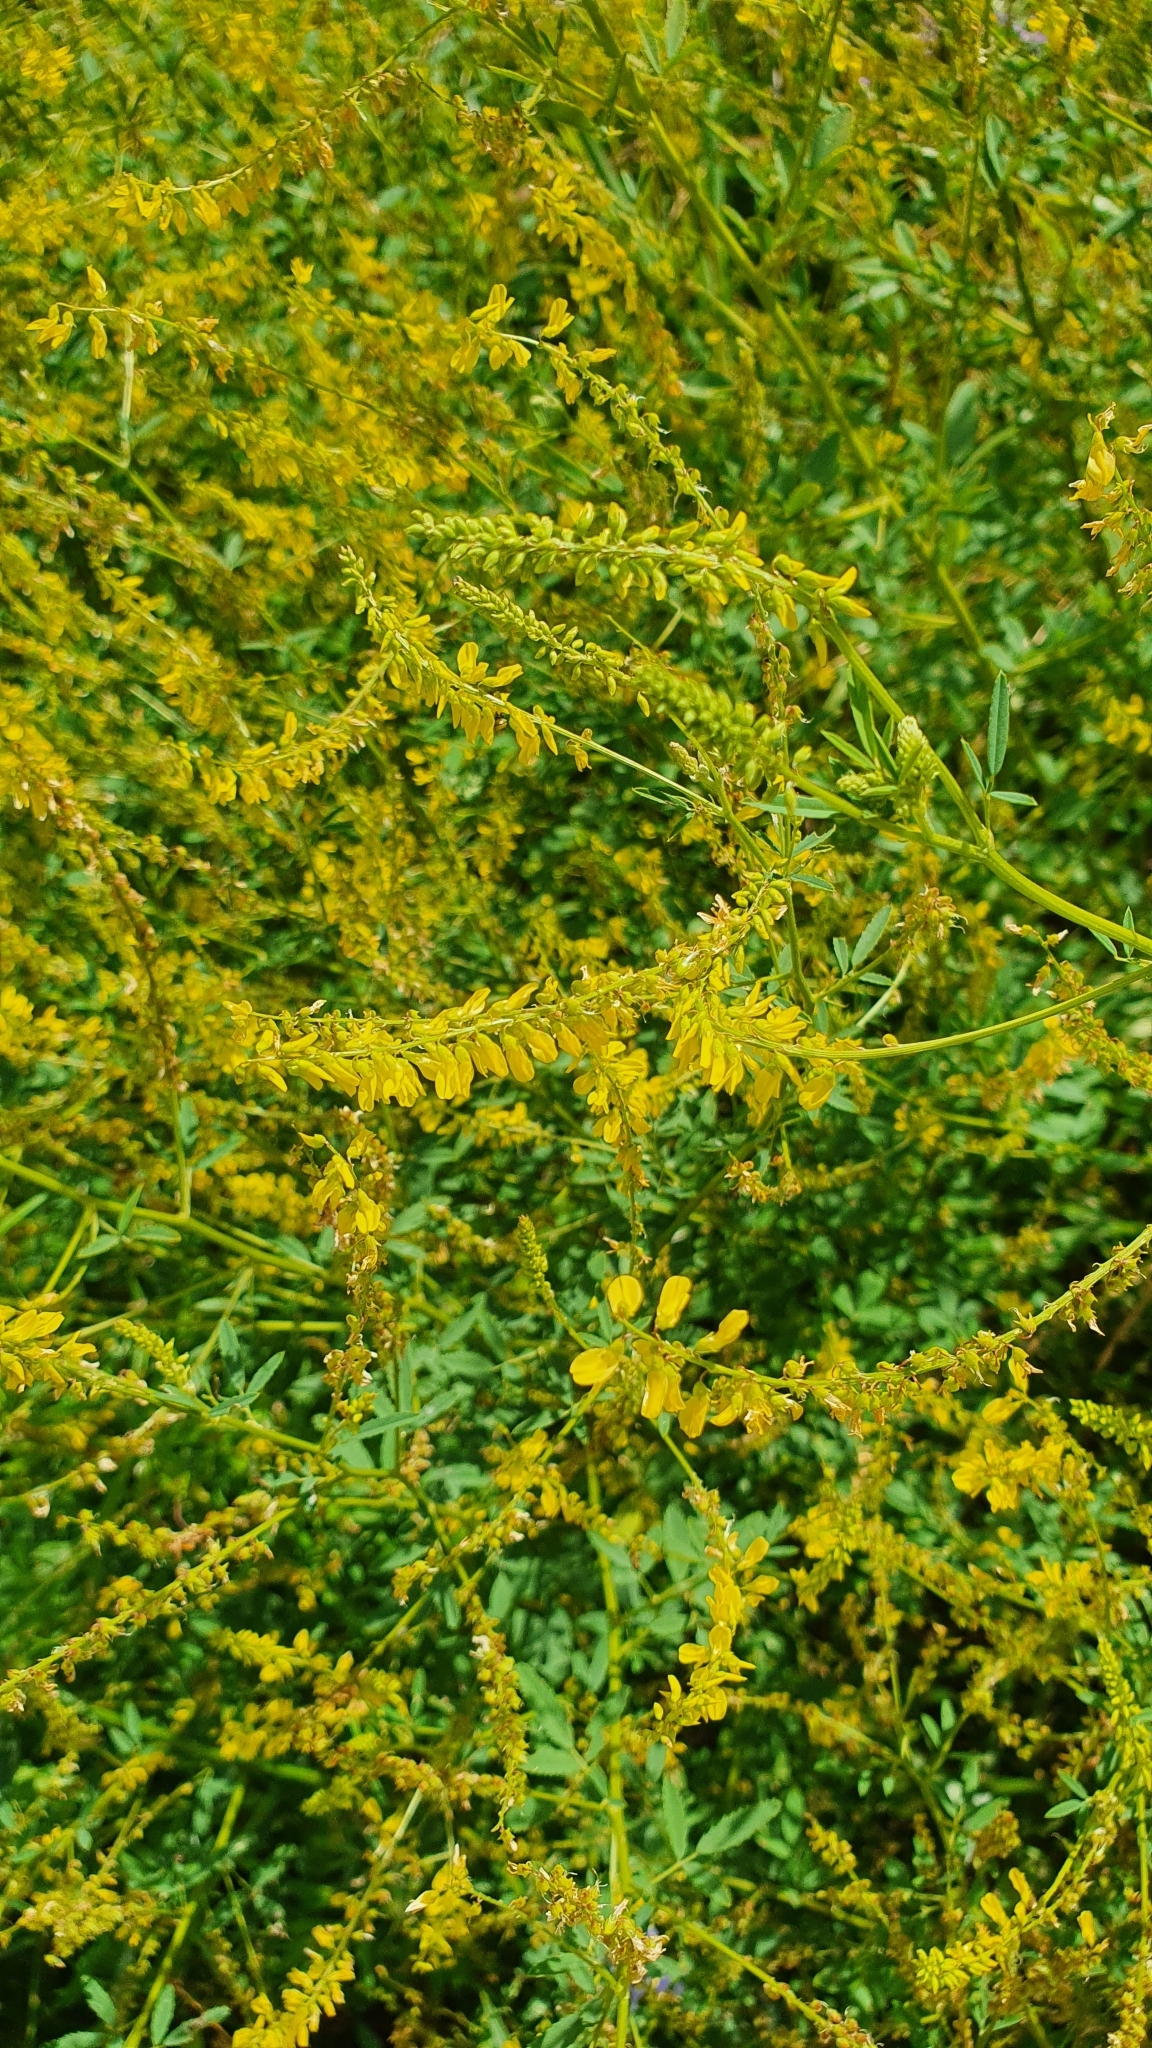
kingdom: Plantae
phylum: Tracheophyta
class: Magnoliopsida
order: Fabales
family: Fabaceae
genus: Melilotus
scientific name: Melilotus officinalis
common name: Sweetclover
